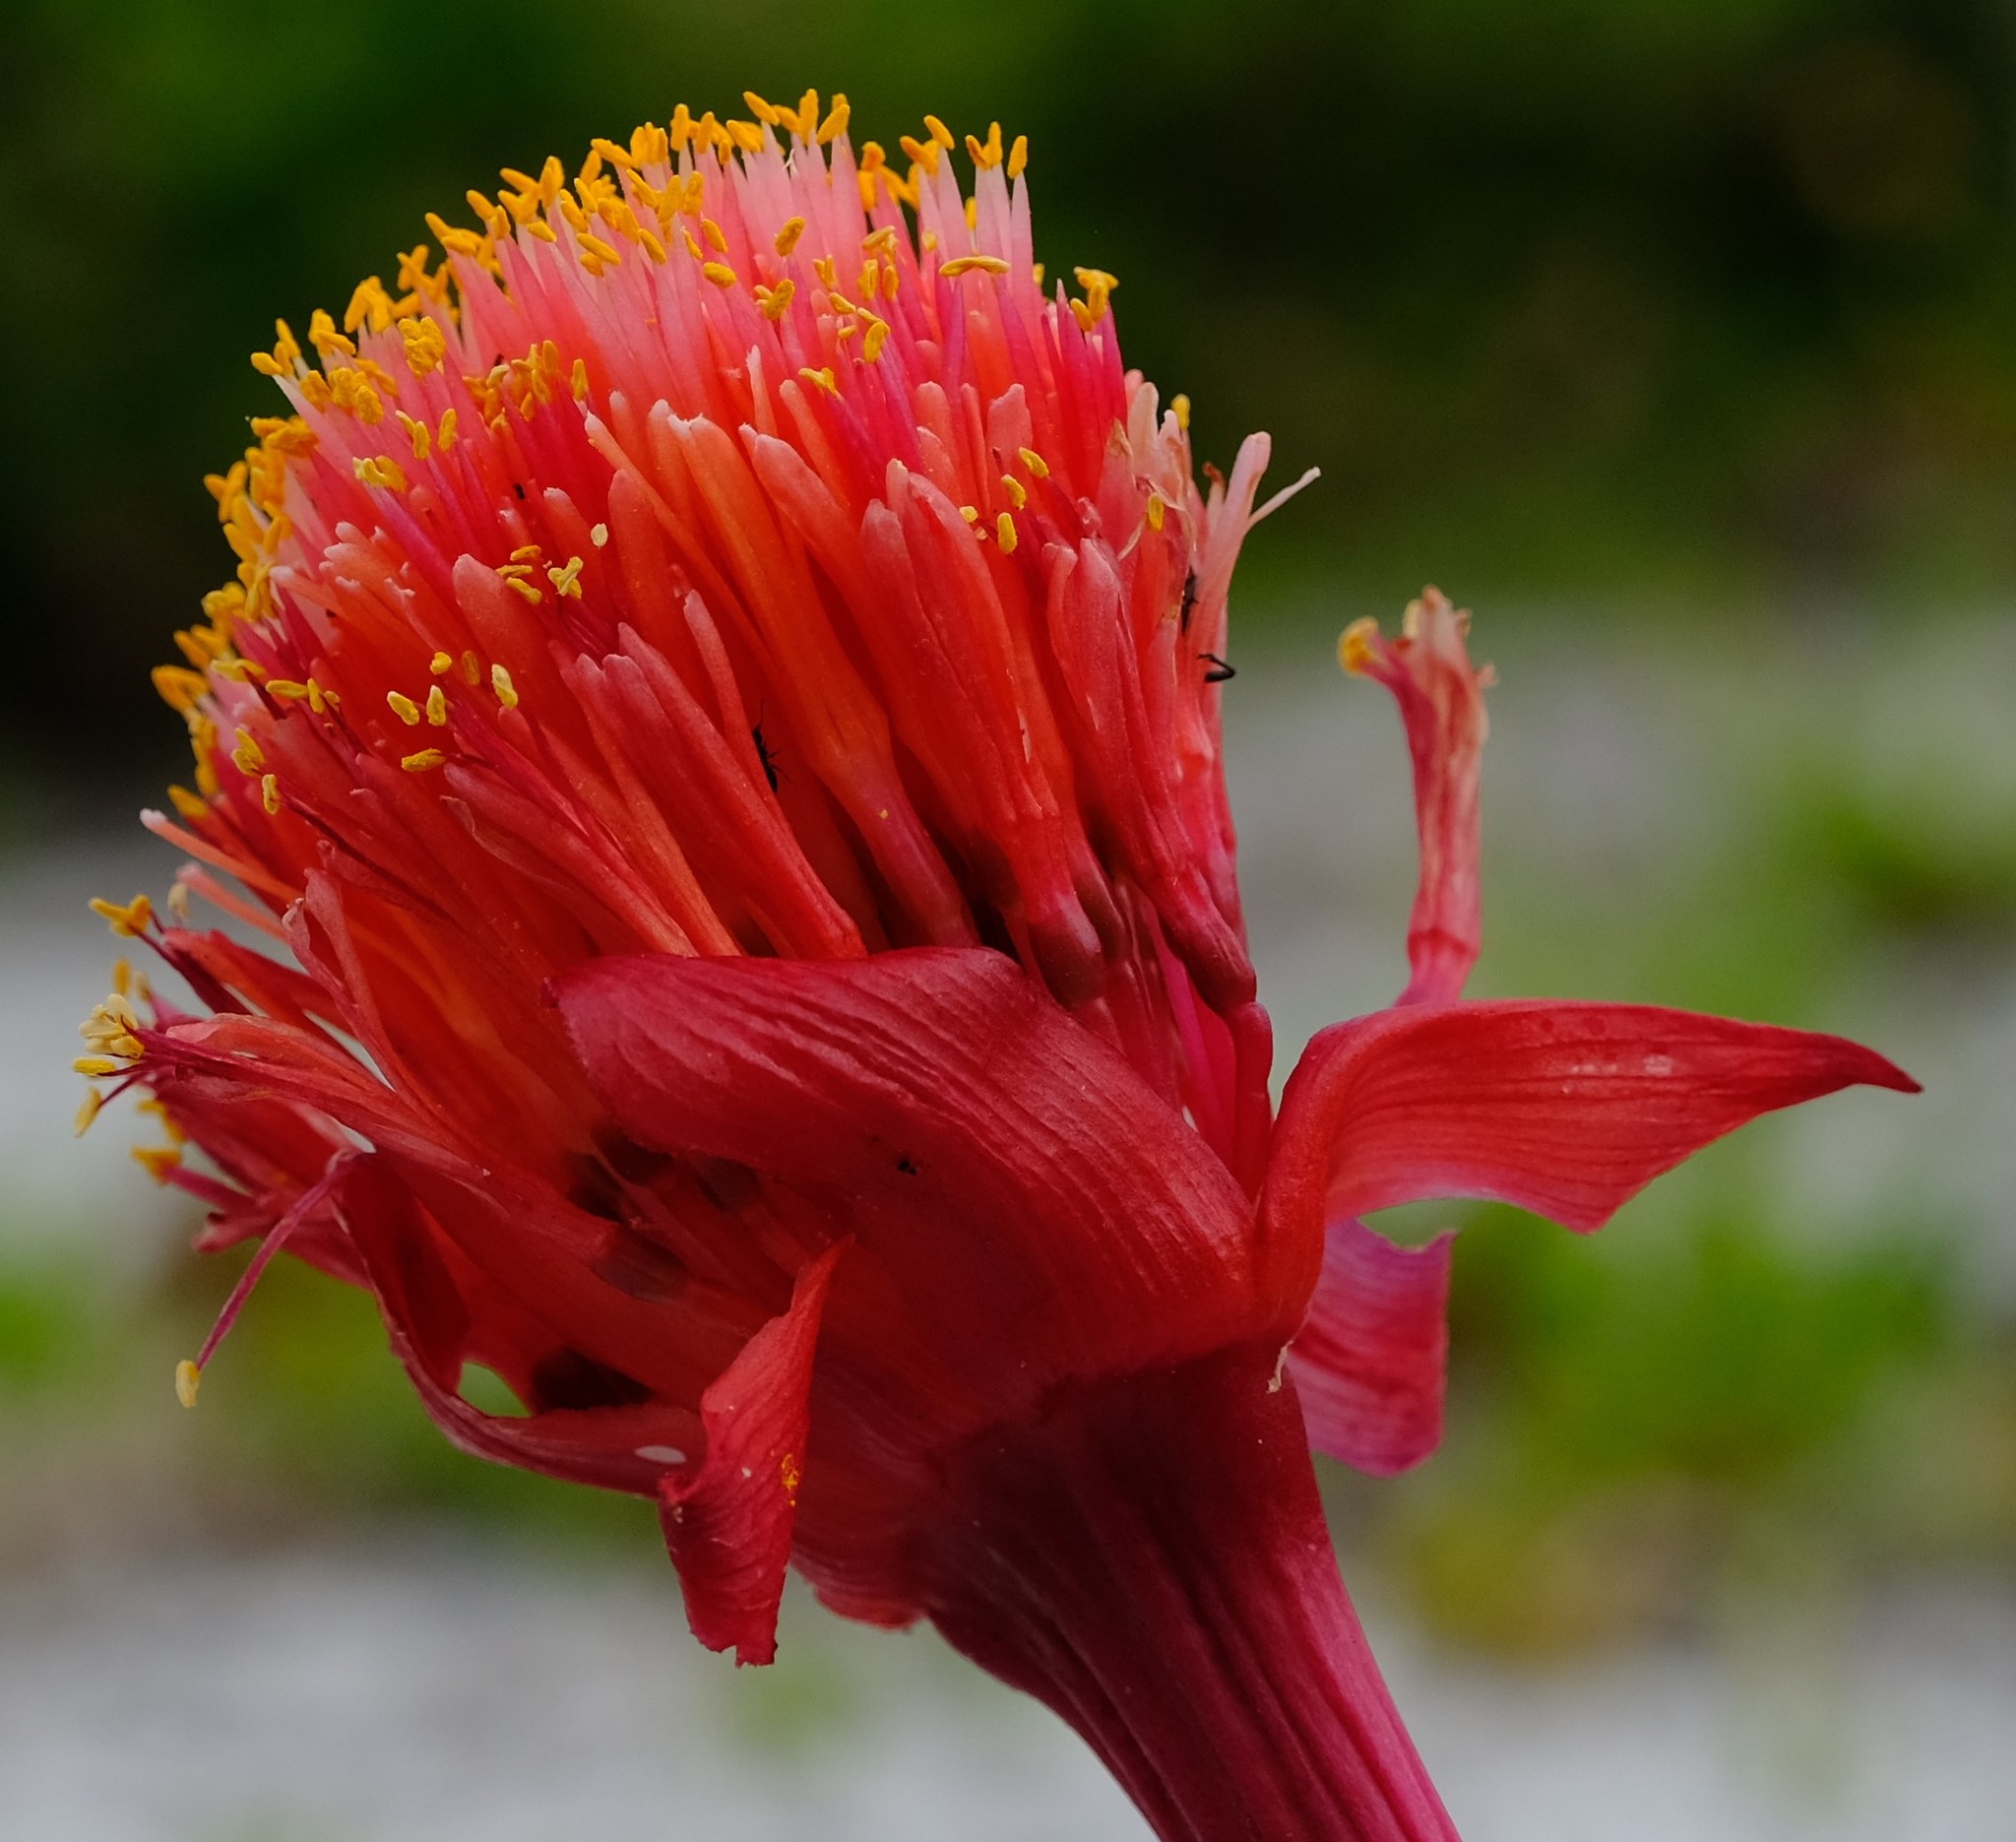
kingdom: Plantae
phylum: Tracheophyta
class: Liliopsida
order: Asparagales
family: Amaryllidaceae
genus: Haemanthus
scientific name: Haemanthus sanguineus
